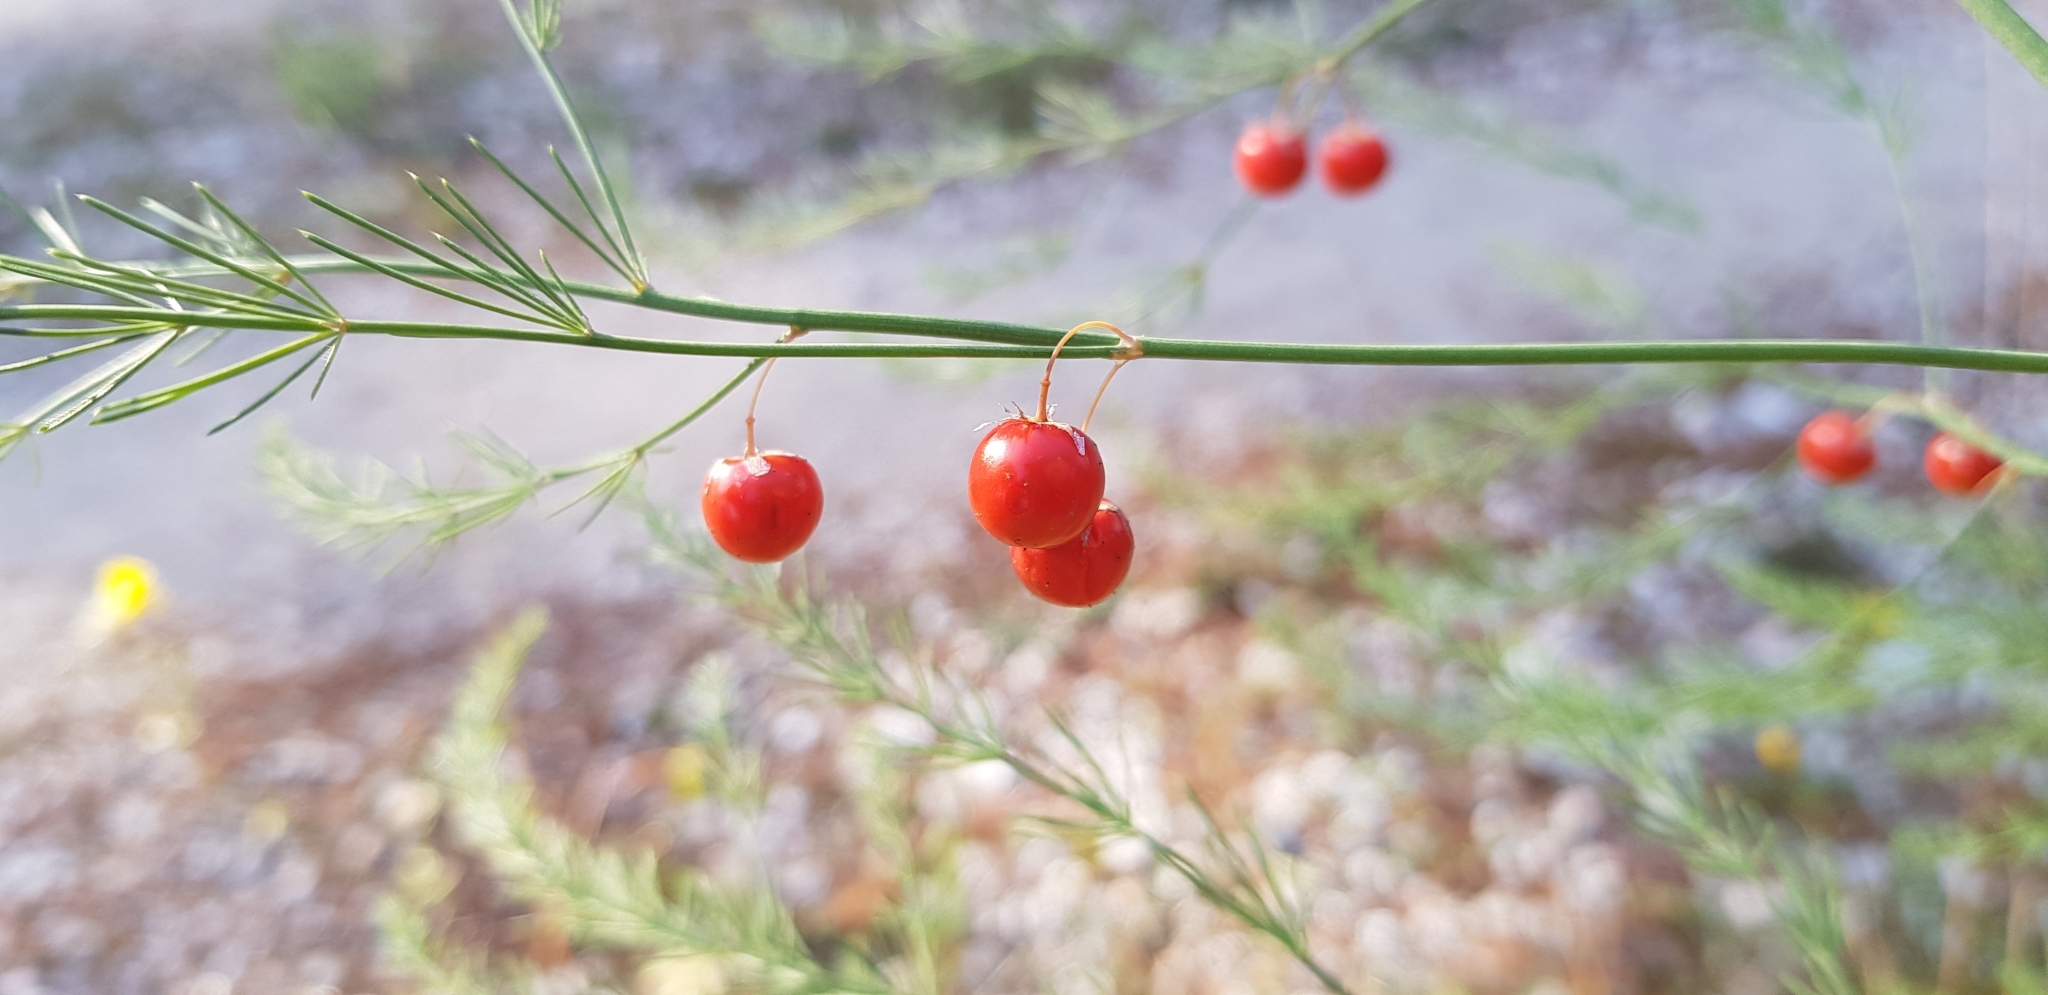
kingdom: Plantae
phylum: Tracheophyta
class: Liliopsida
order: Asparagales
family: Asparagaceae
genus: Asparagus
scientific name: Asparagus officinalis
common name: Garden asparagus
